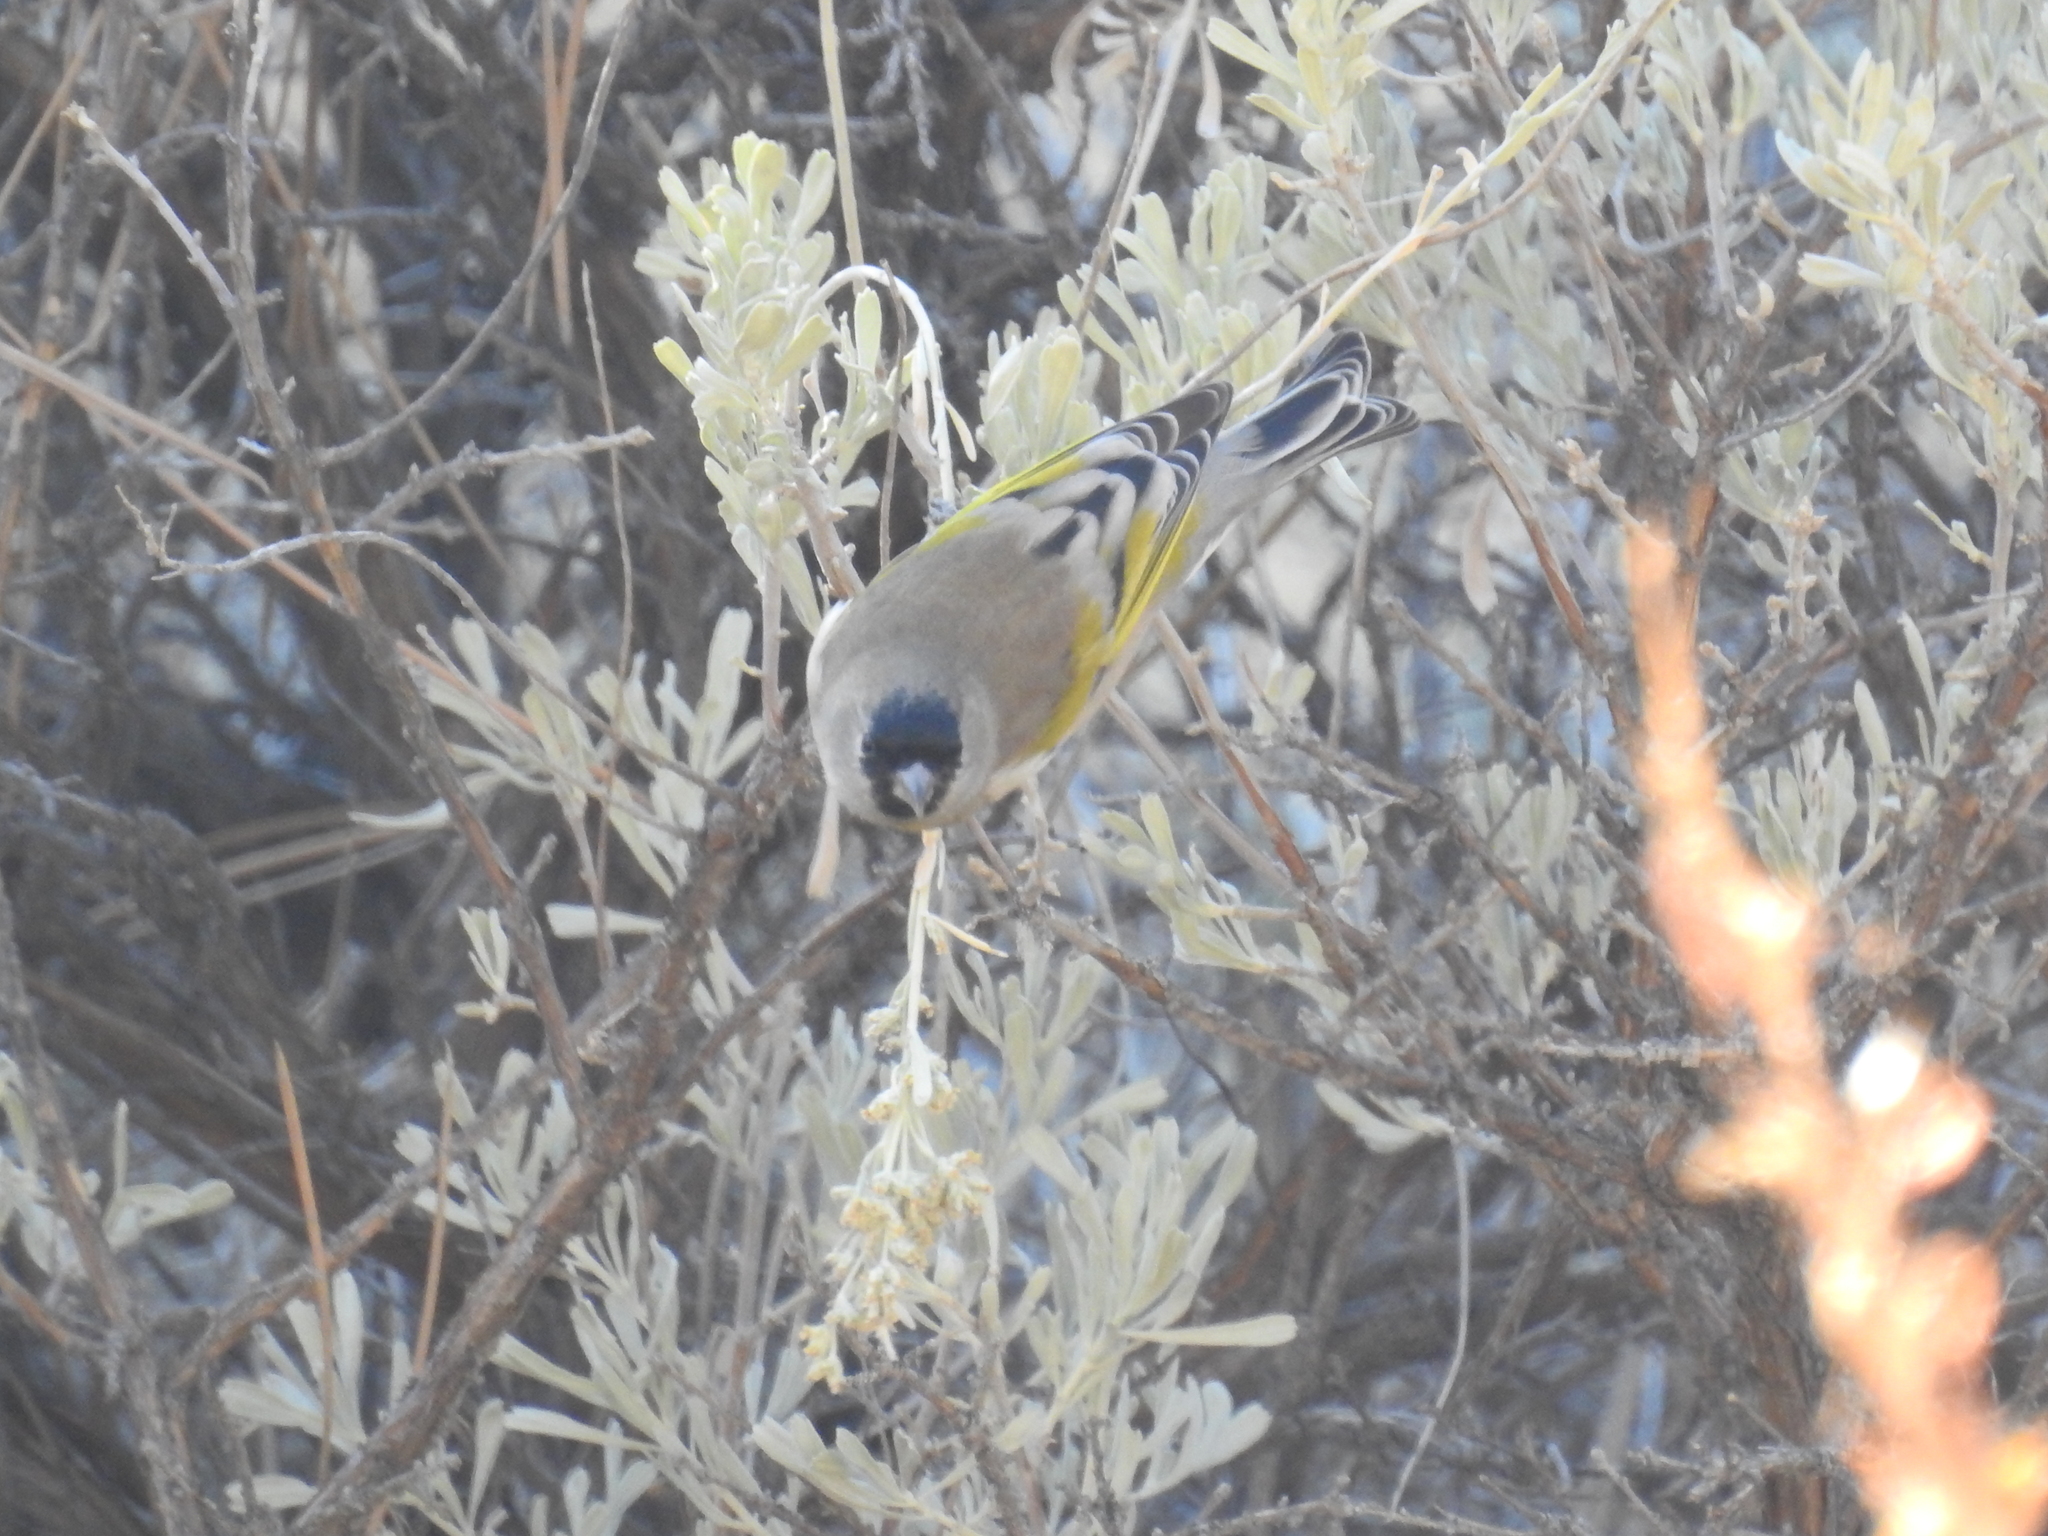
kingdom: Animalia
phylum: Chordata
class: Aves
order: Passeriformes
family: Fringillidae
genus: Spinus
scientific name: Spinus lawrencei
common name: Lawrence's goldfinch
